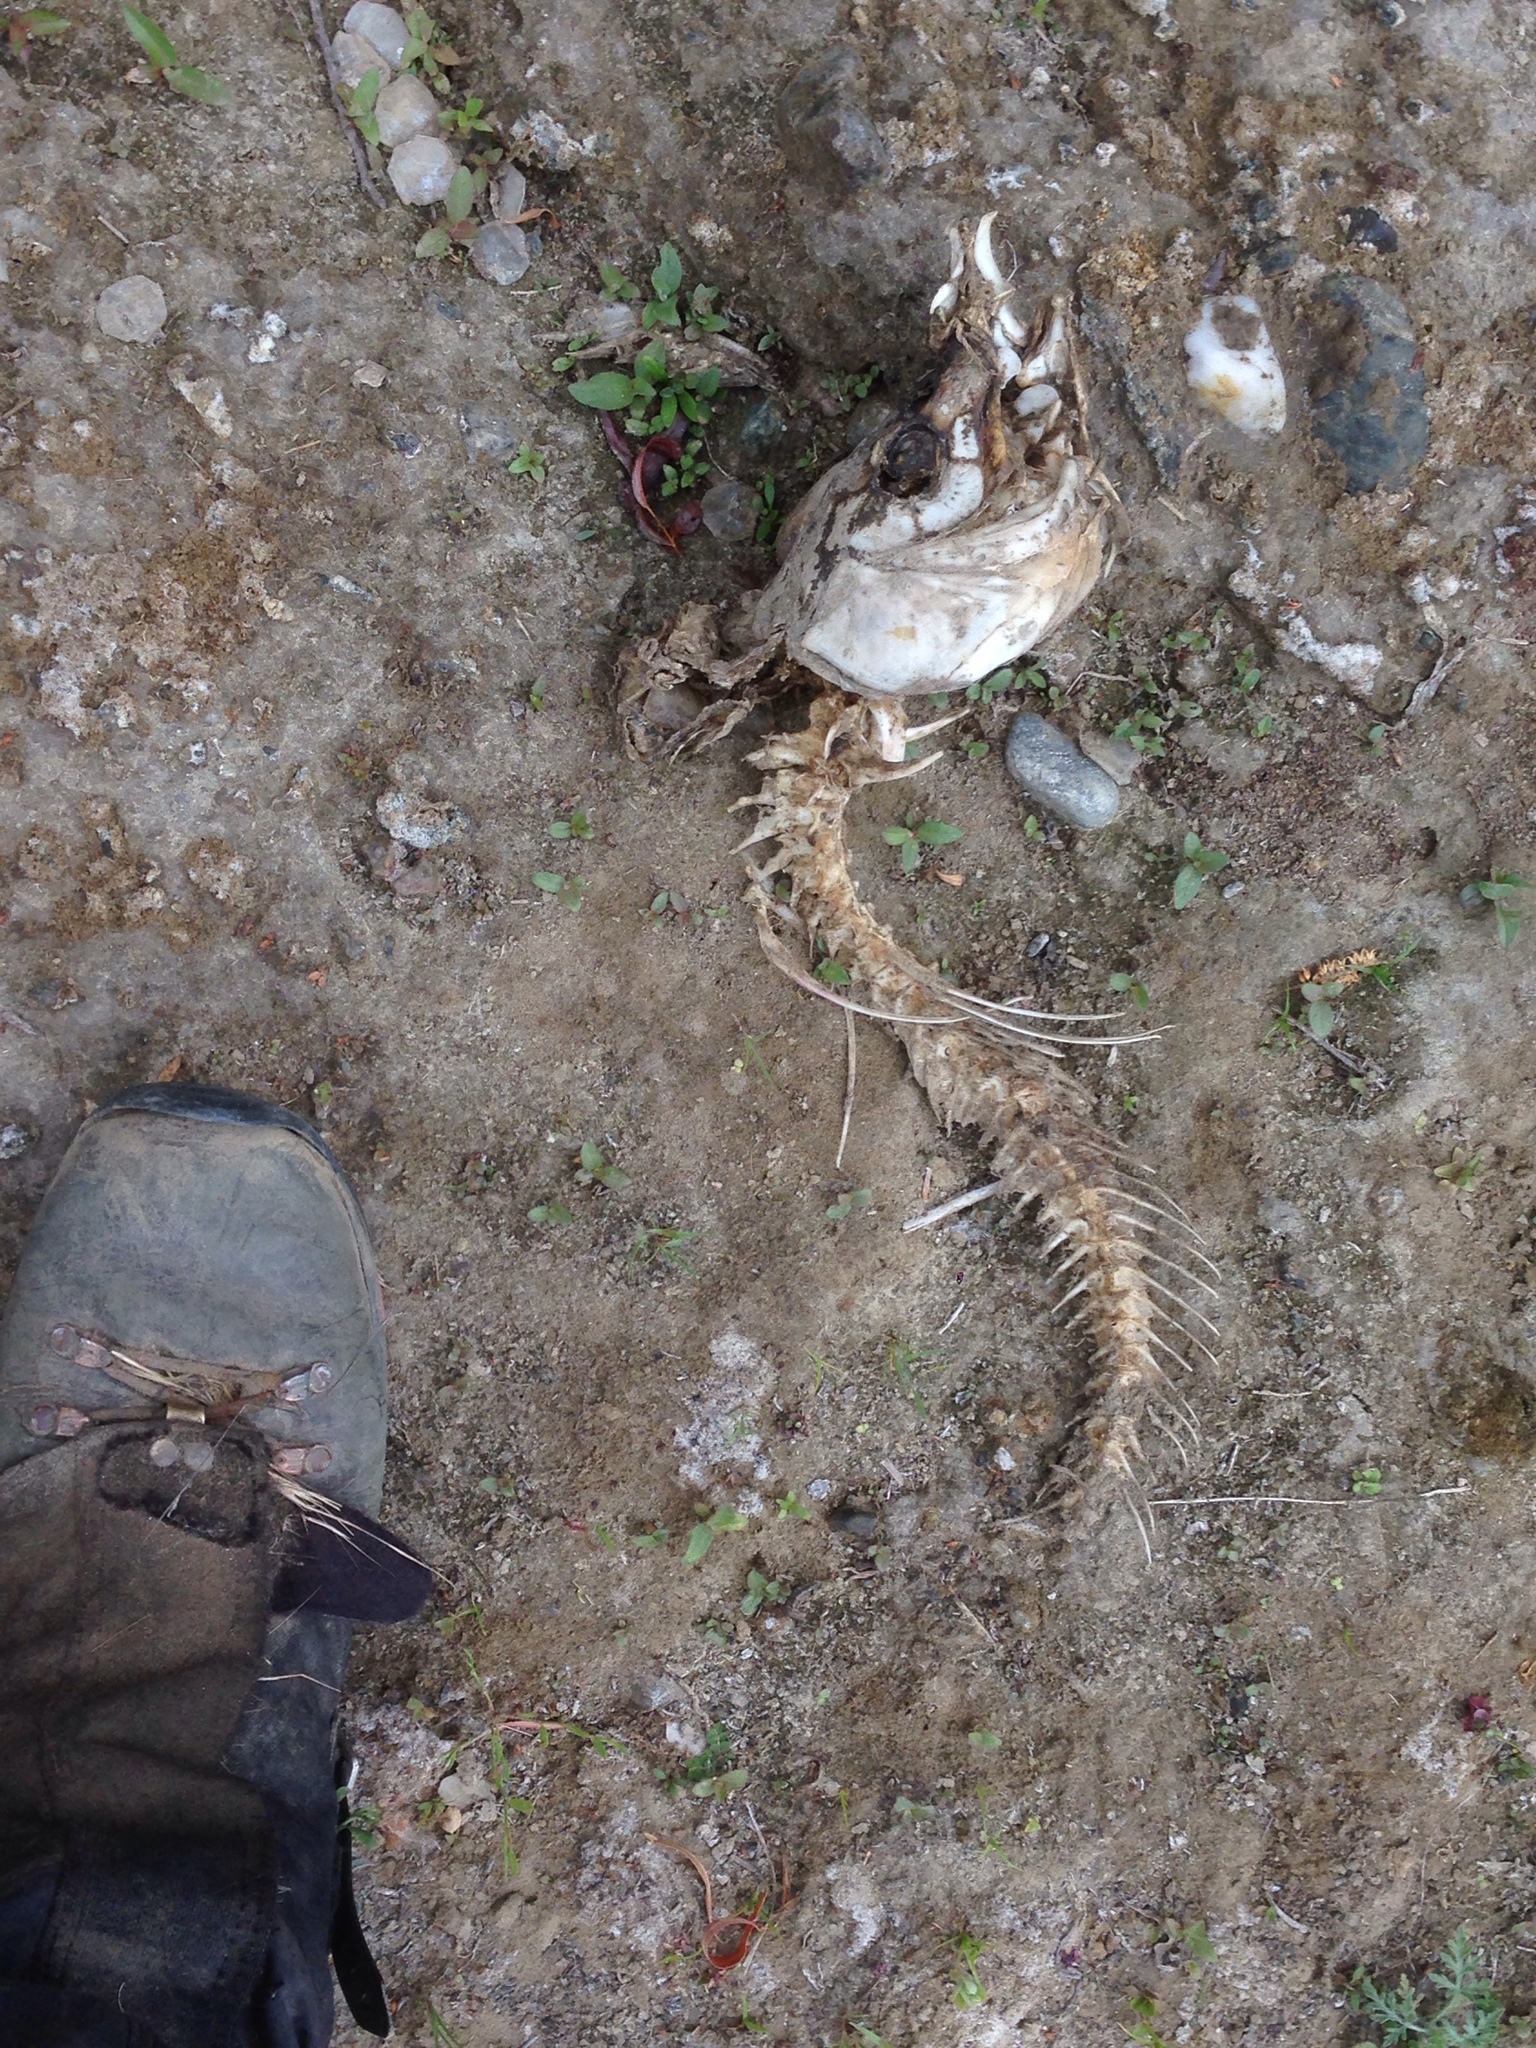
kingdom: Animalia
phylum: Chordata
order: Cypriniformes
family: Cyprinidae
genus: Cyprinus
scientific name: Cyprinus carpio
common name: Common carp
